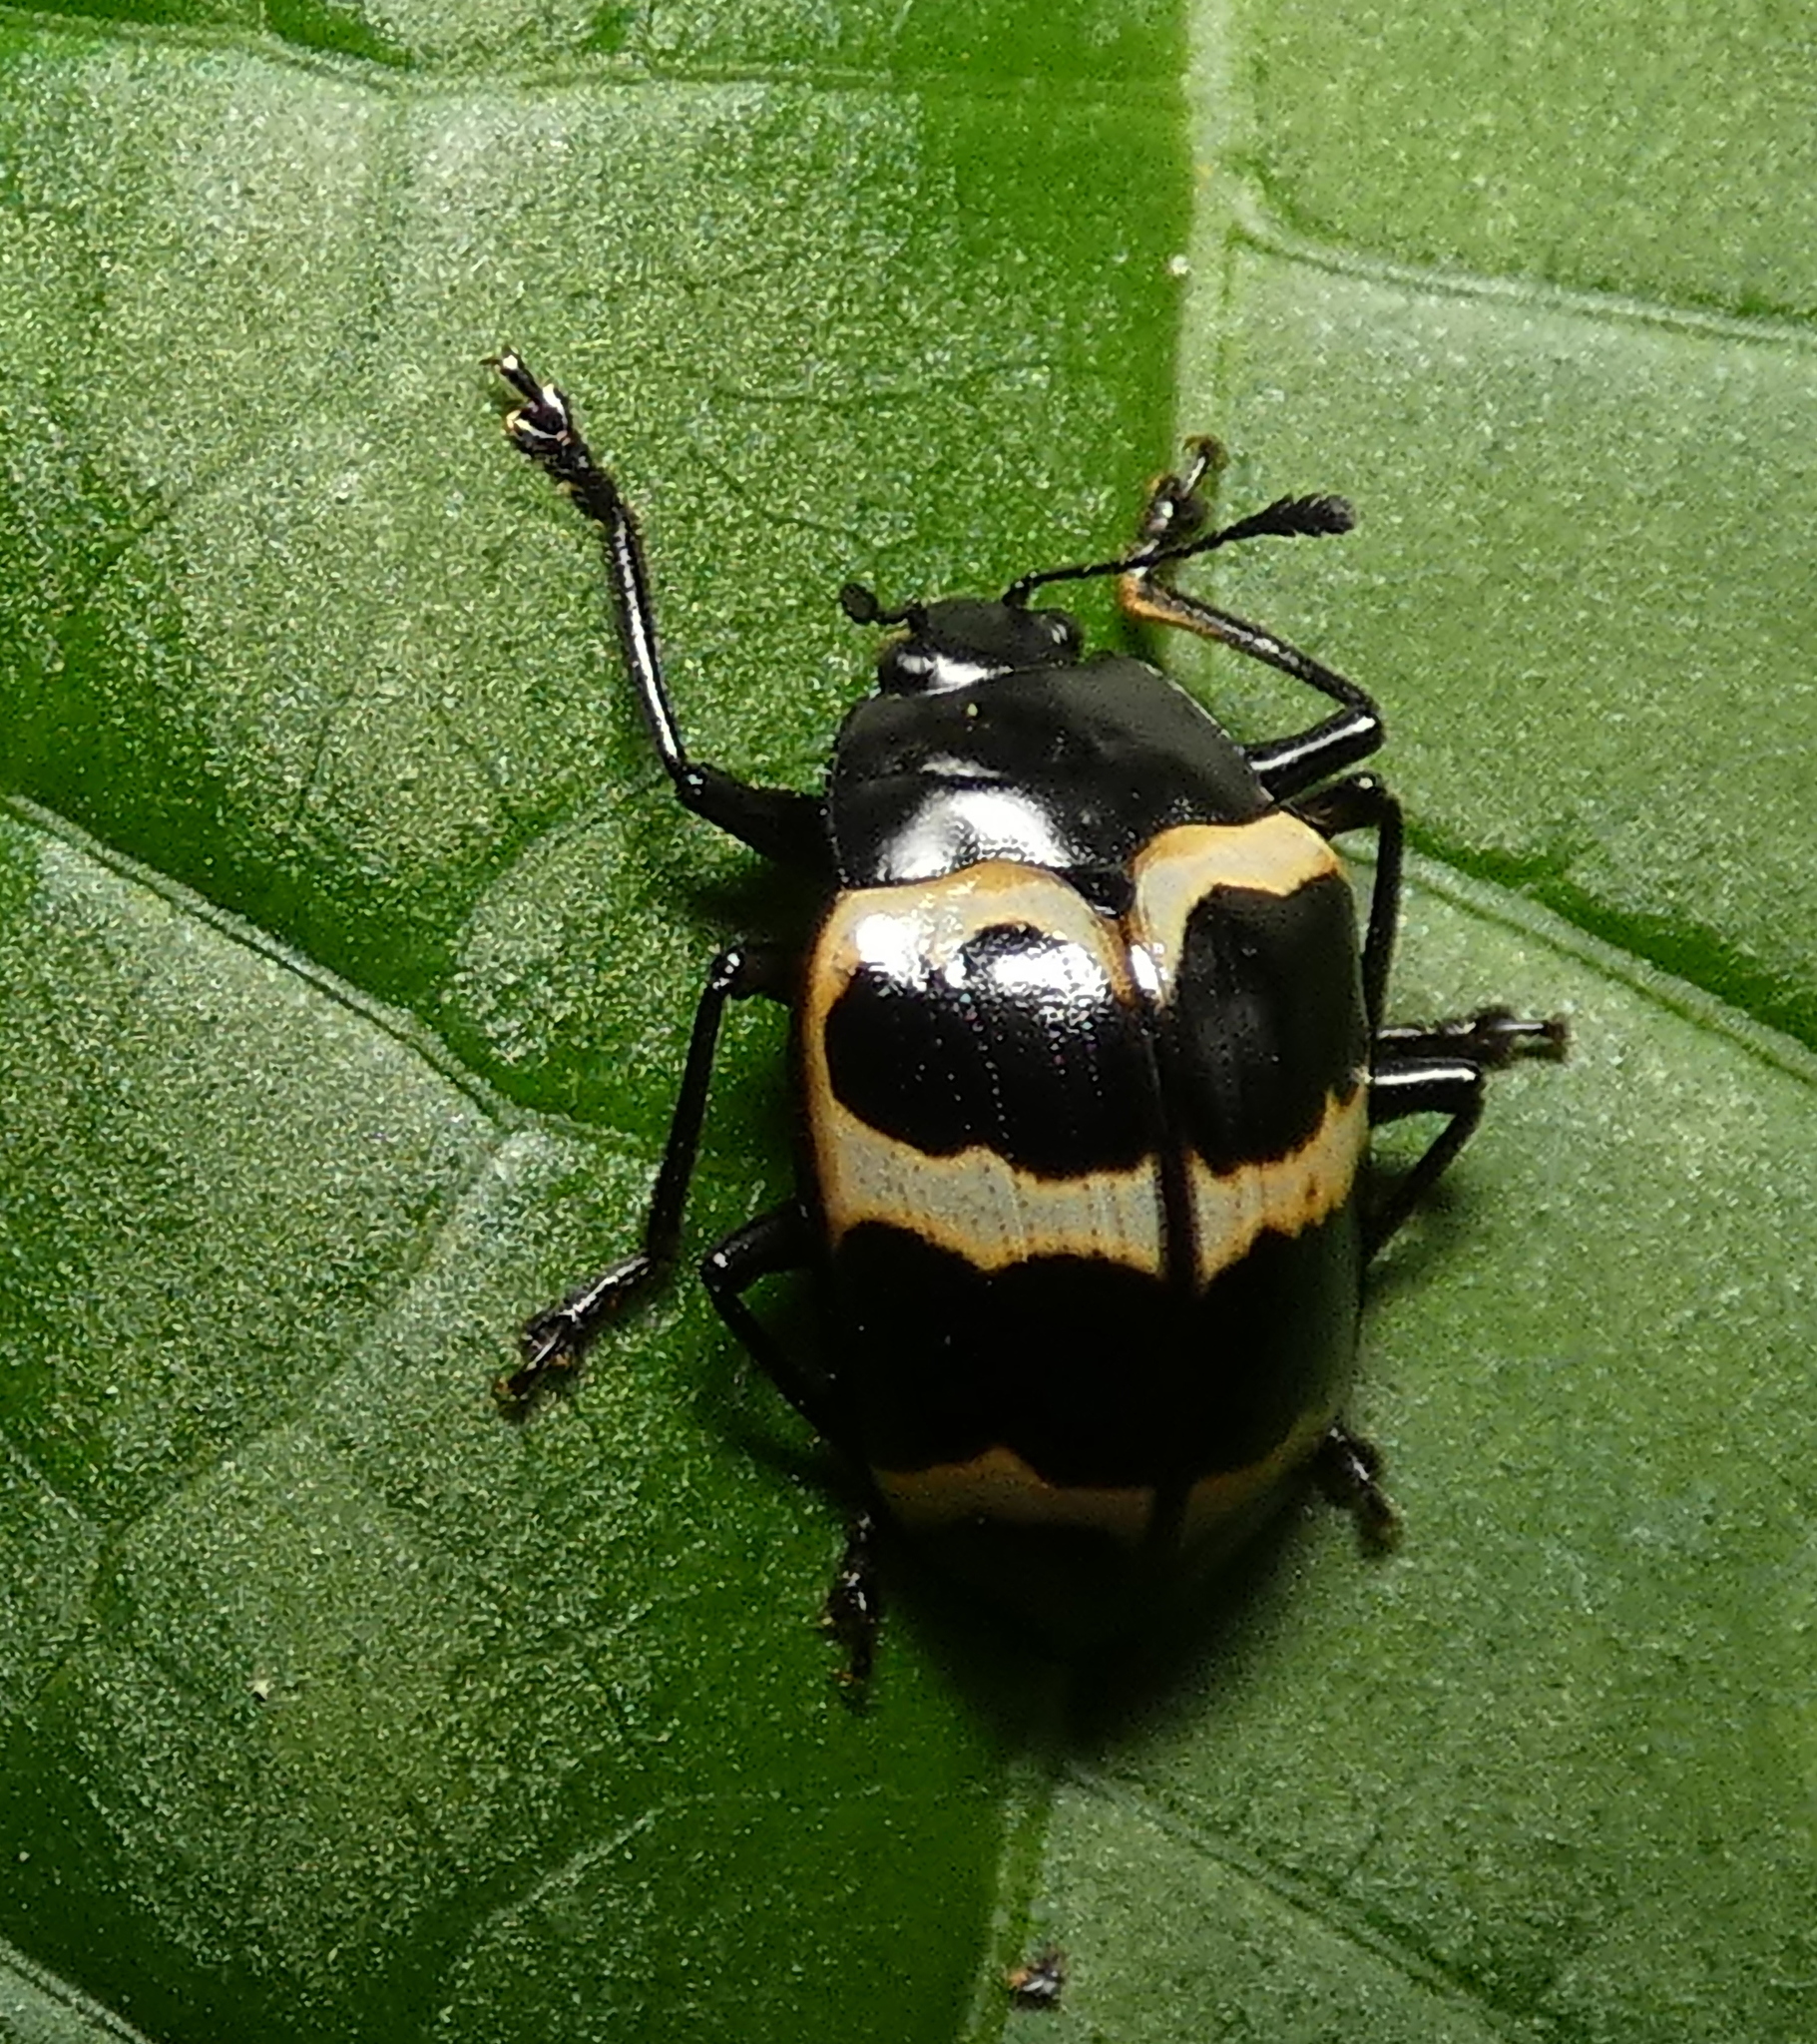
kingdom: Animalia
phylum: Arthropoda
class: Insecta
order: Coleoptera
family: Erotylidae
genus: Oligocorynus
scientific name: Oligocorynus
